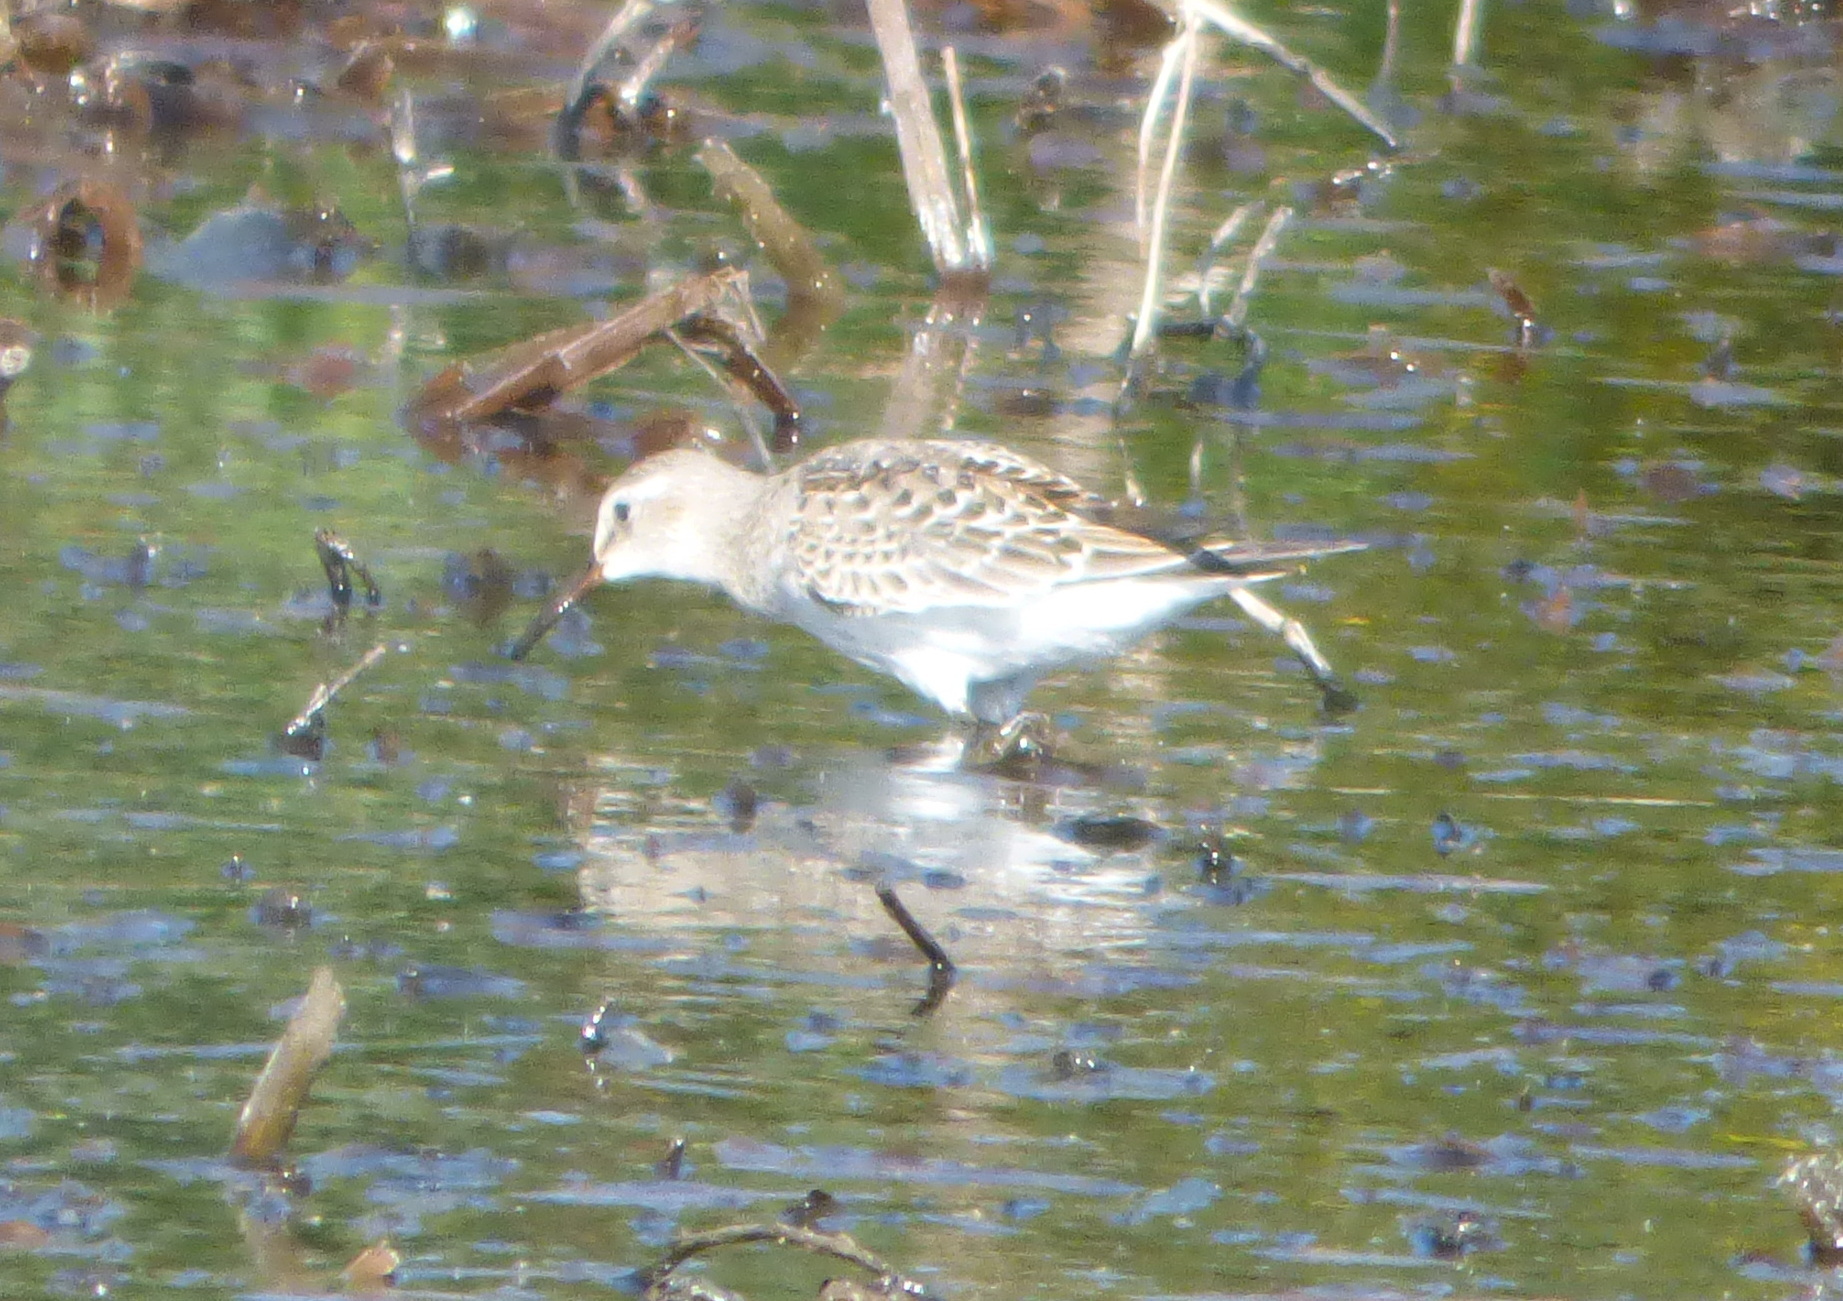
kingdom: Animalia
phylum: Chordata
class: Aves
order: Charadriiformes
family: Scolopacidae
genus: Calidris
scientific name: Calidris fuscicollis
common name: White-rumped sandpiper
